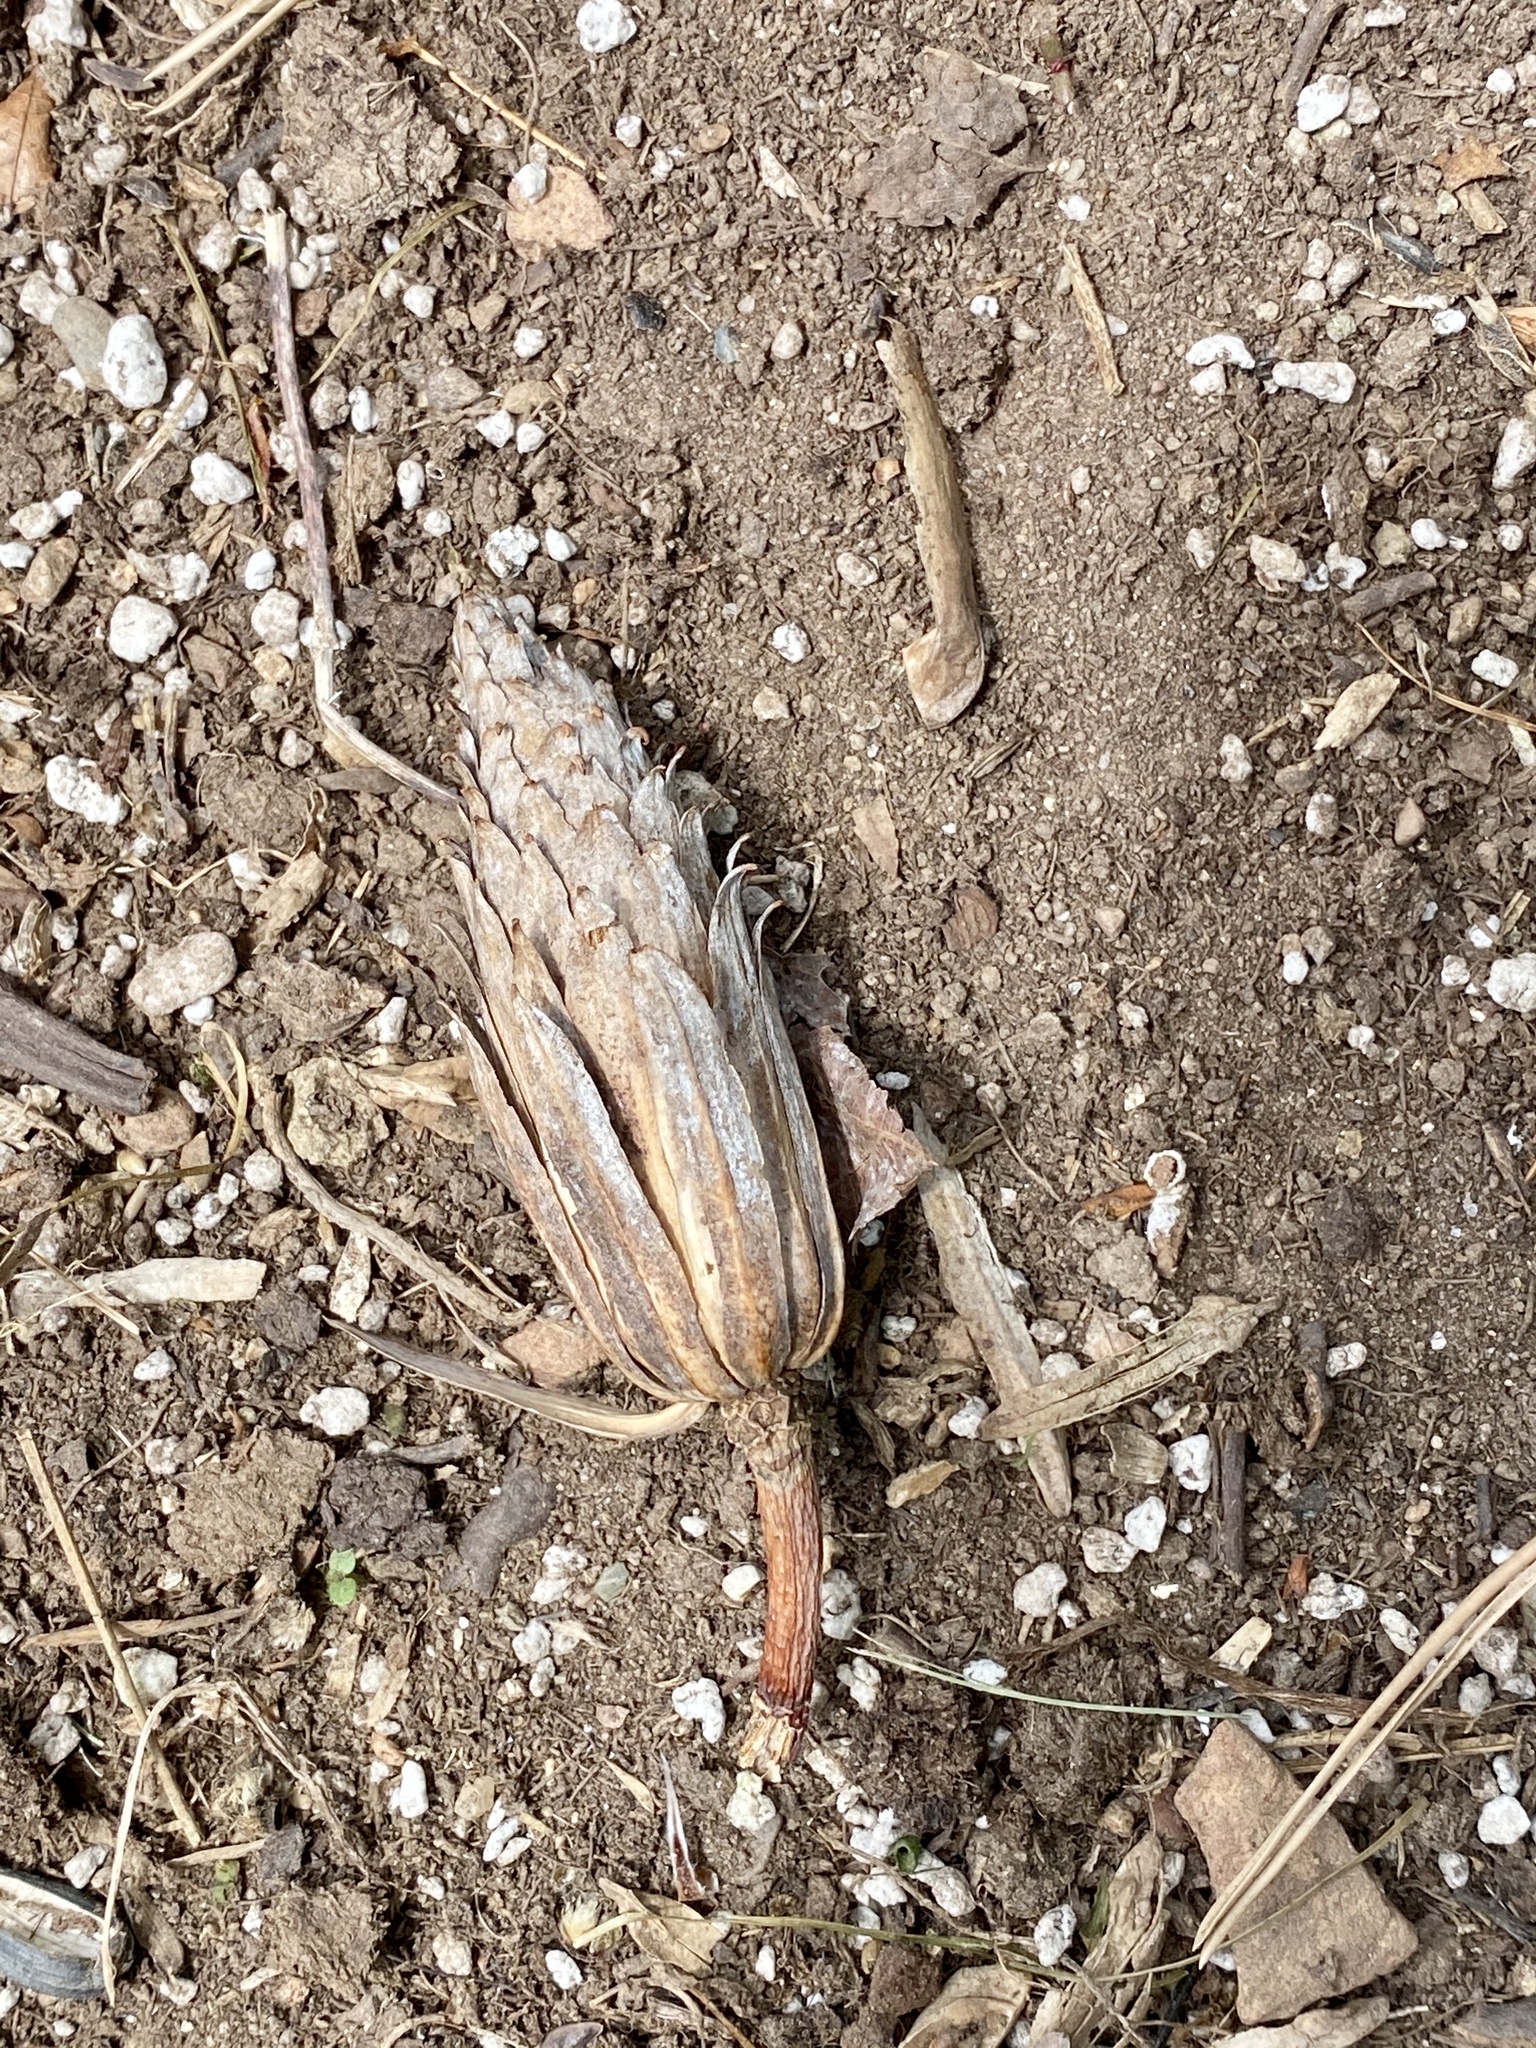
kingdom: Plantae
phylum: Tracheophyta
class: Magnoliopsida
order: Magnoliales
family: Magnoliaceae
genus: Liriodendron
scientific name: Liriodendron tulipifera
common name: Tulip tree
